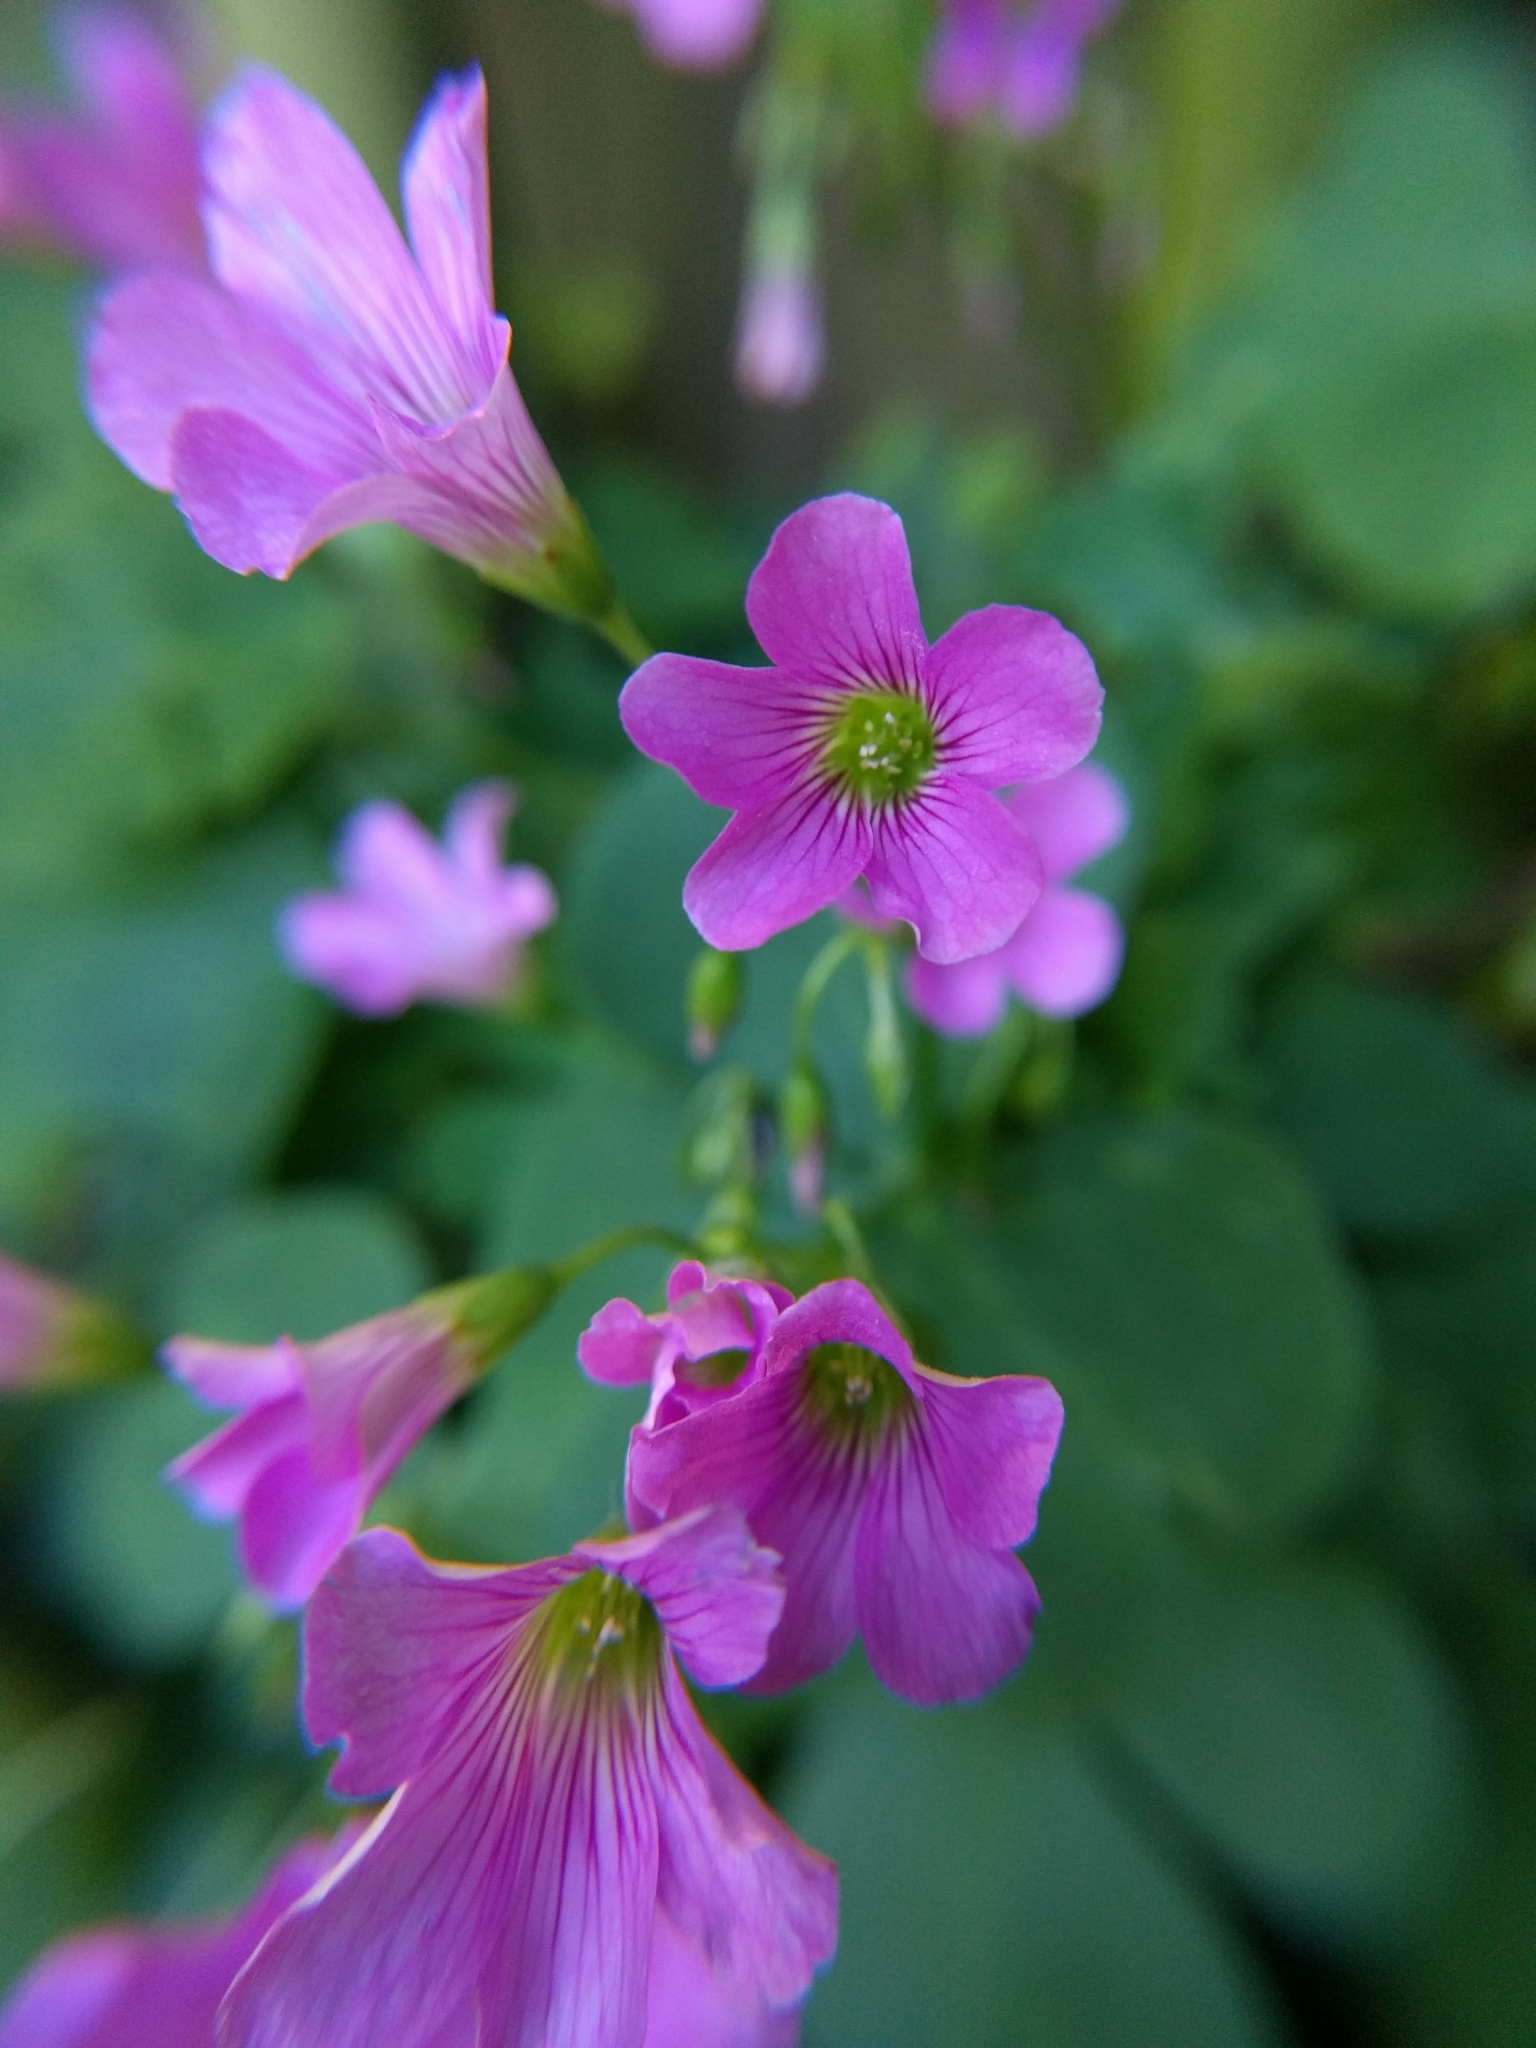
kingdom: Plantae
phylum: Tracheophyta
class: Magnoliopsida
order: Oxalidales
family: Oxalidaceae
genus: Oxalis
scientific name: Oxalis debilis
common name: Large-flowered pink-sorrel
